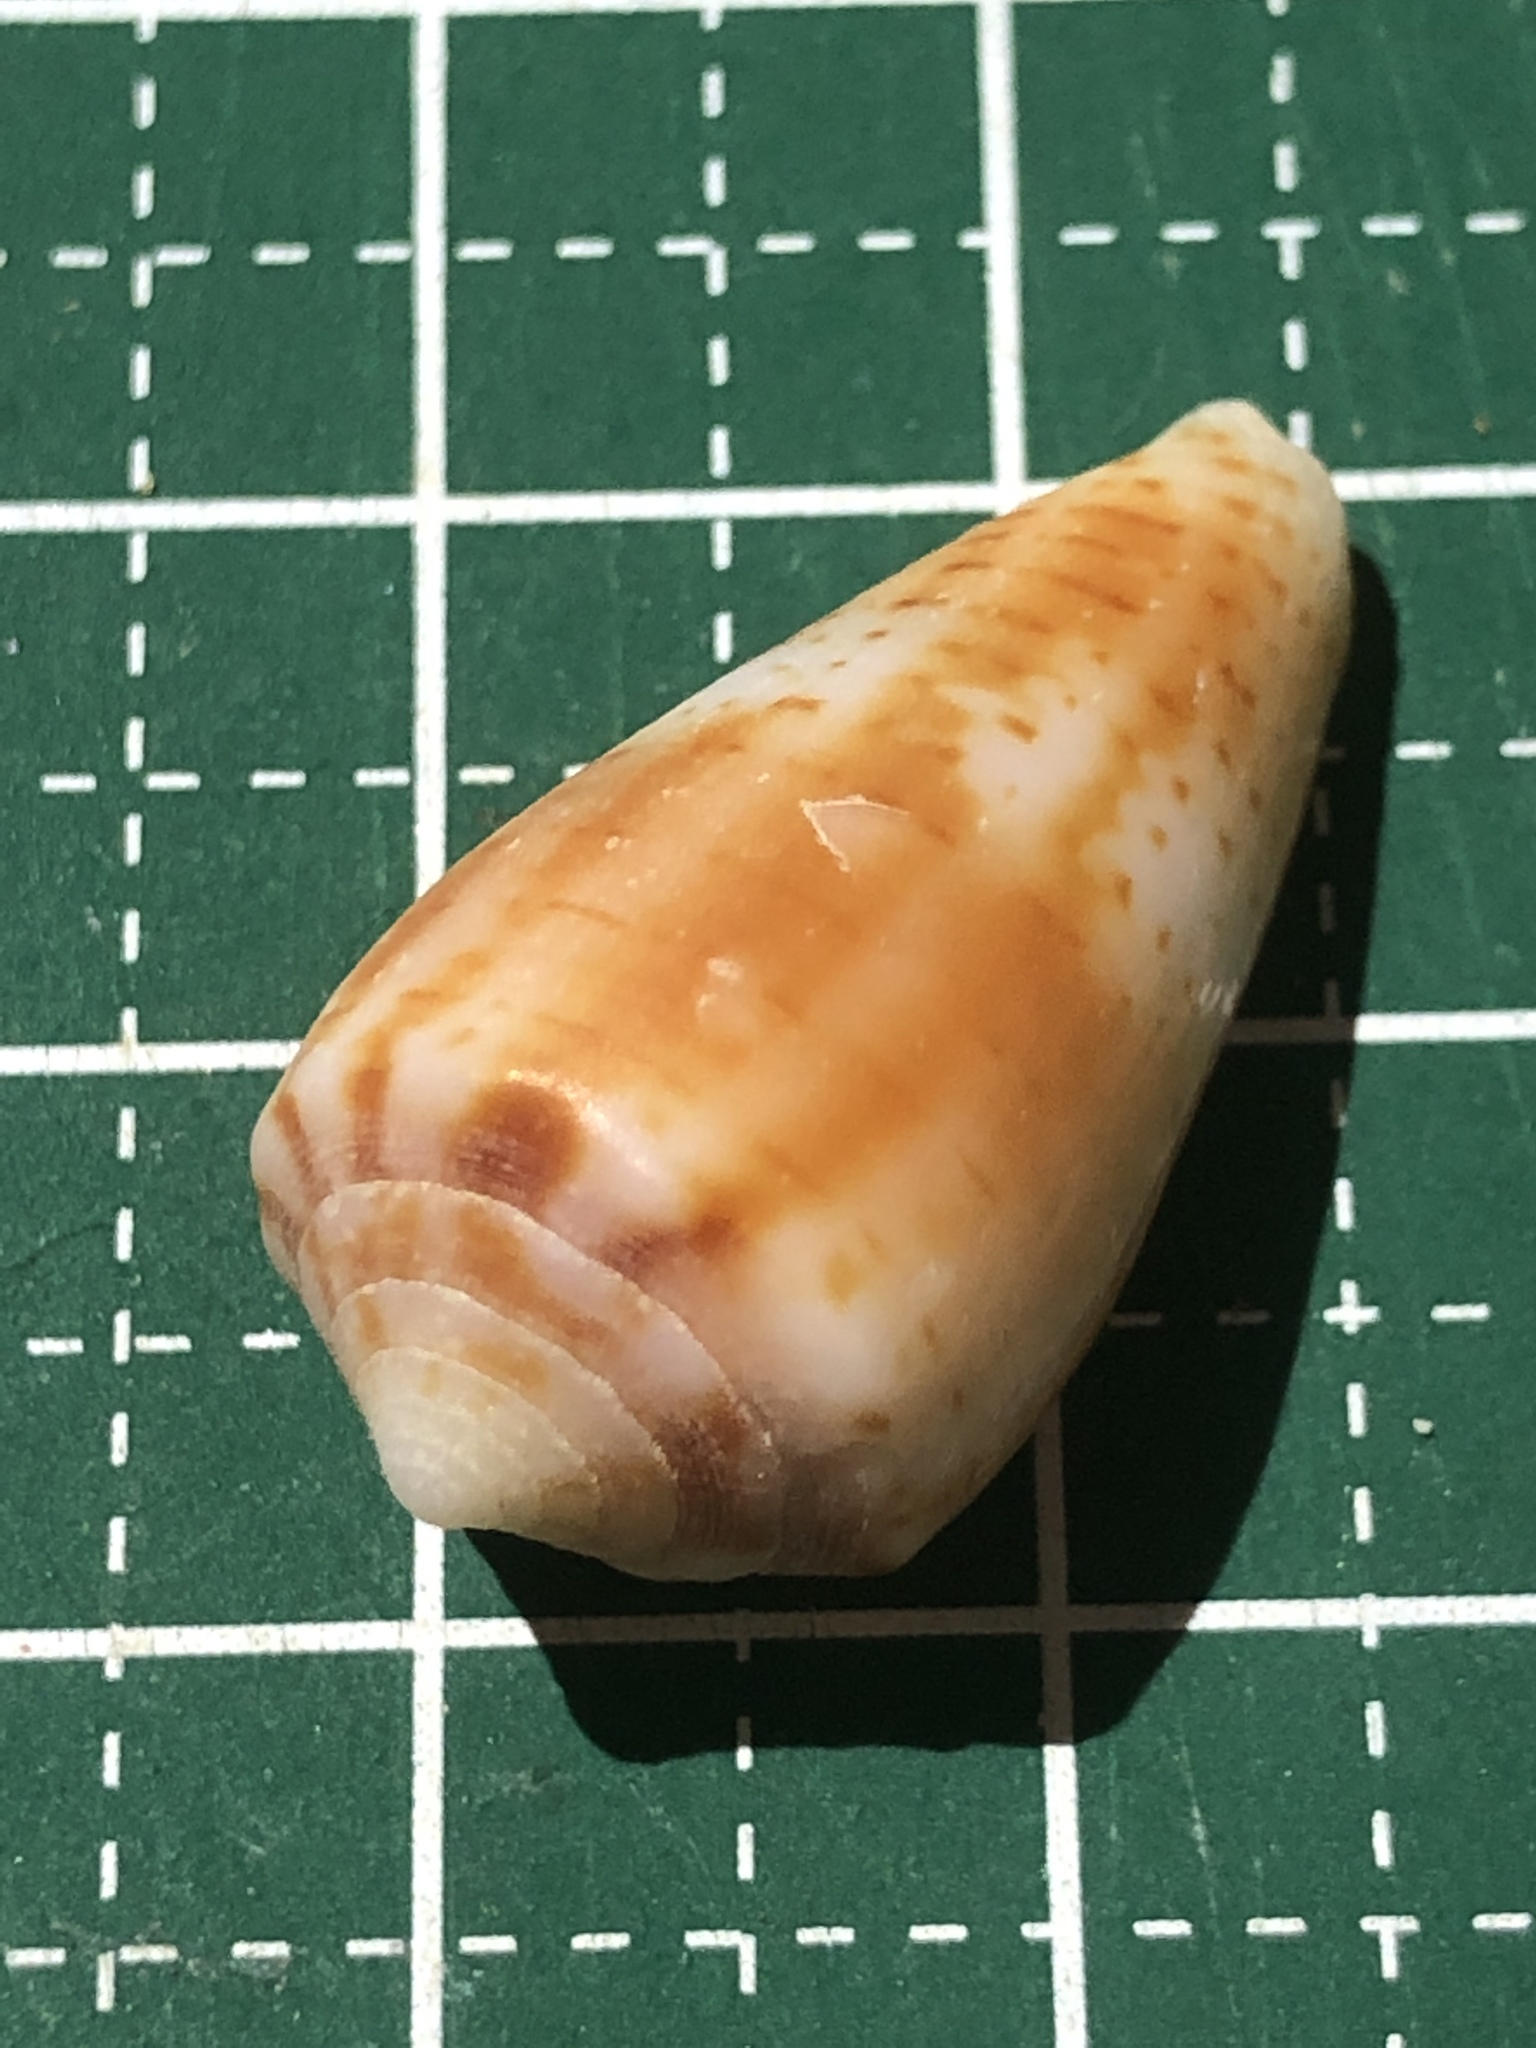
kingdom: Animalia
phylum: Mollusca
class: Gastropoda
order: Neogastropoda
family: Conidae
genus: Conus
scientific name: Conus boeticus
